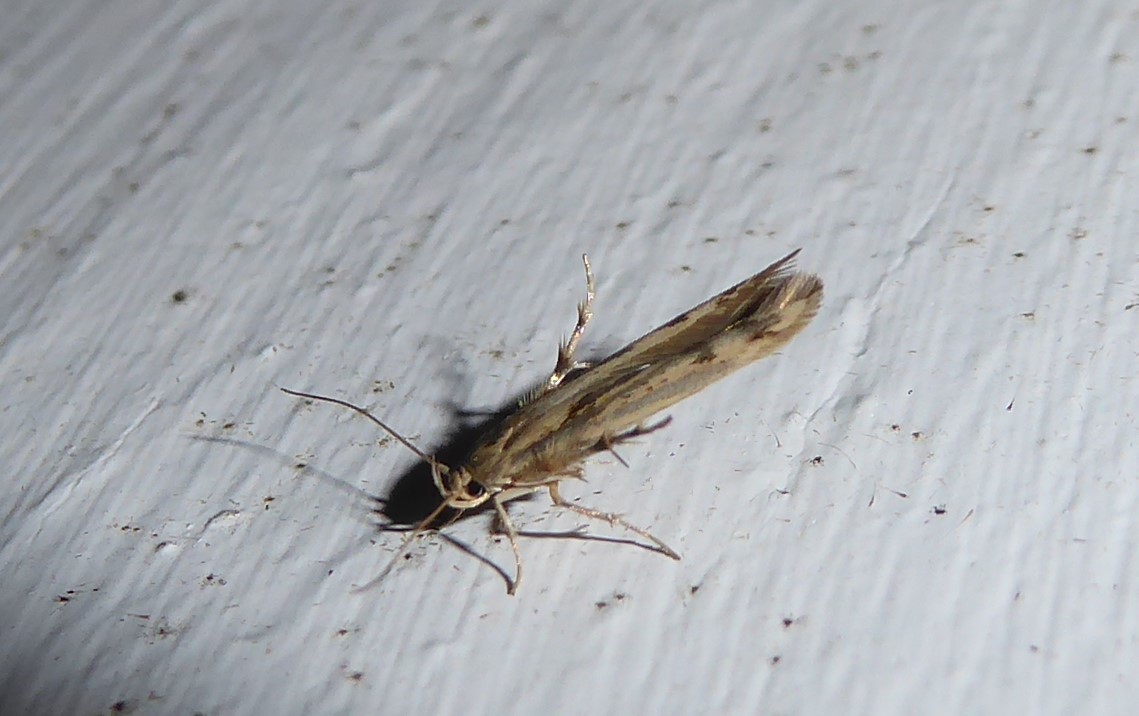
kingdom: Animalia
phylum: Arthropoda
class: Insecta
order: Lepidoptera
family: Stathmopodidae
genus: Stathmopoda
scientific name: Stathmopoda plumbiflua
